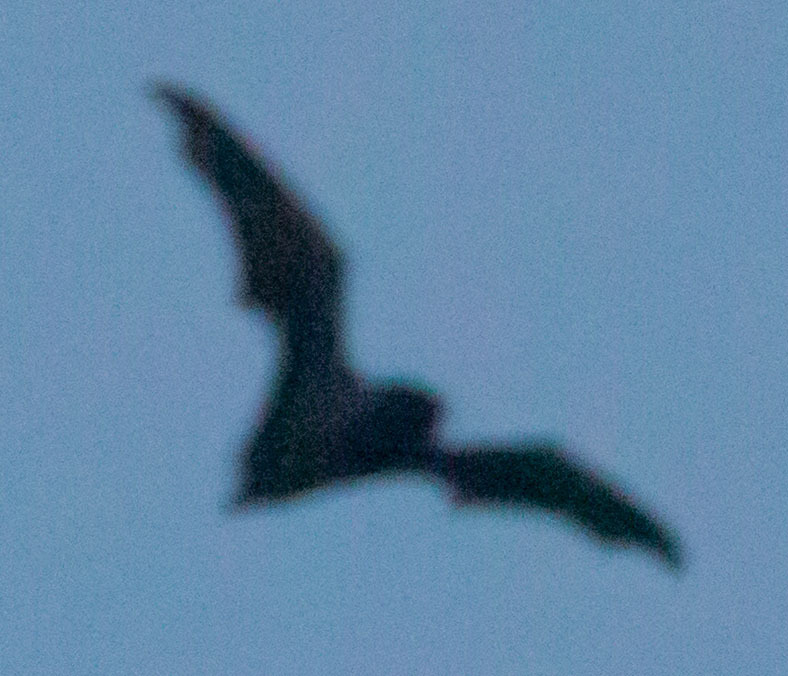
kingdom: Animalia
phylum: Chordata
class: Mammalia
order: Chiroptera
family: Vespertilionidae
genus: Aeorestes
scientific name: Aeorestes cinereus
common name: North american hoary bat
